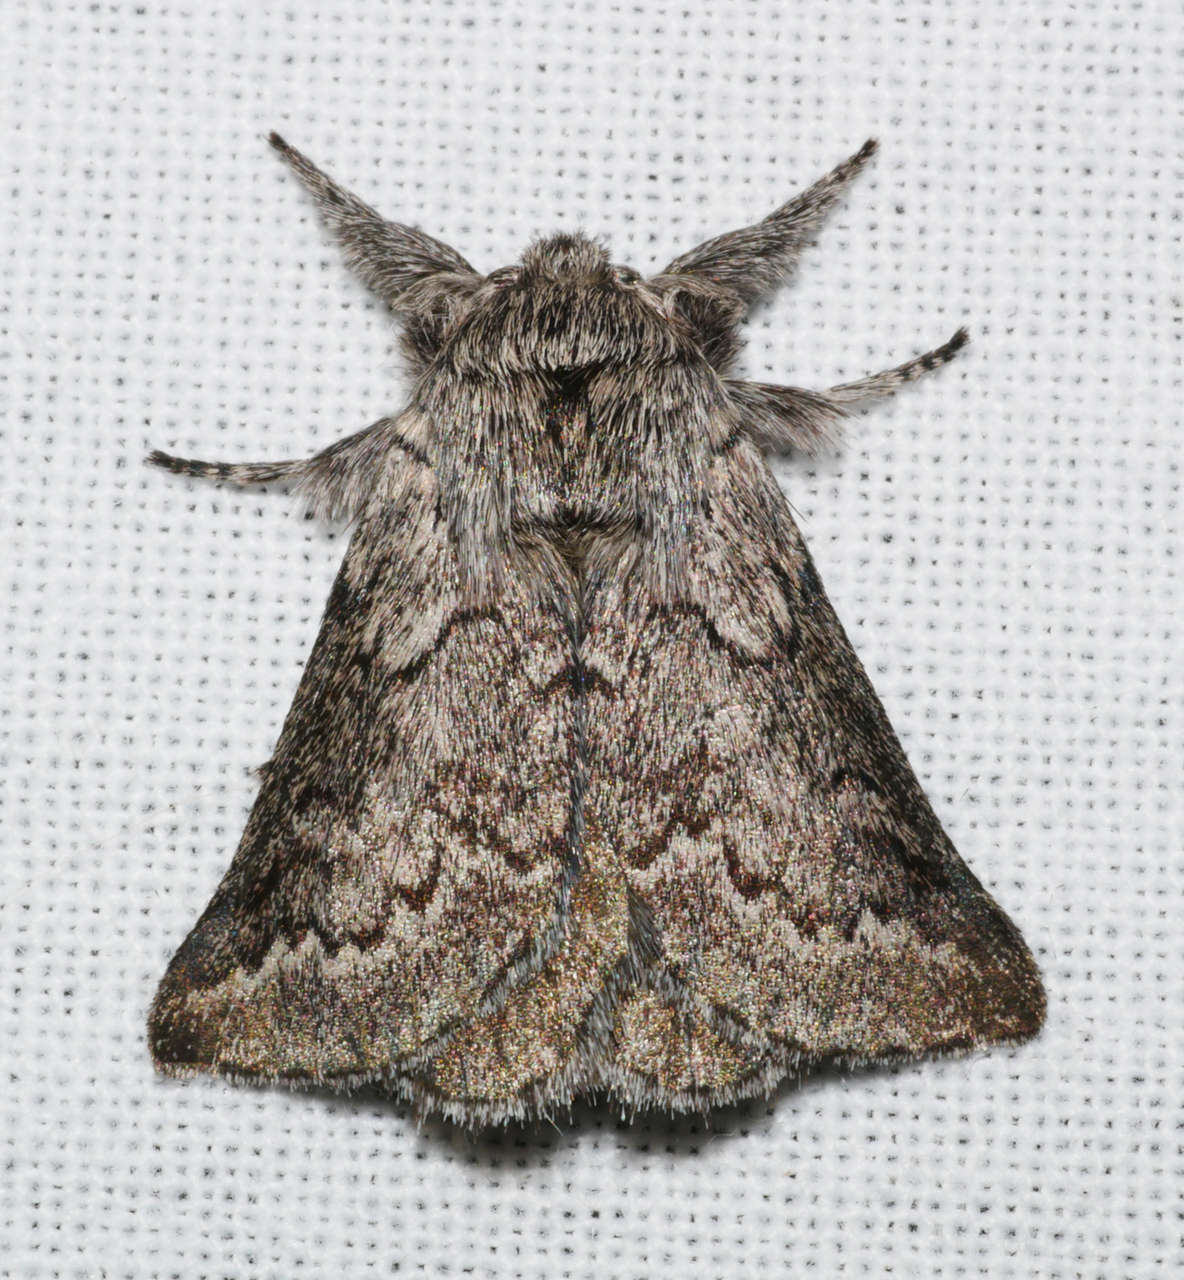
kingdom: Animalia
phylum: Arthropoda
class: Insecta
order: Lepidoptera
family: Anthelidae
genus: Munychryia
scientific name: Munychryia senicula
